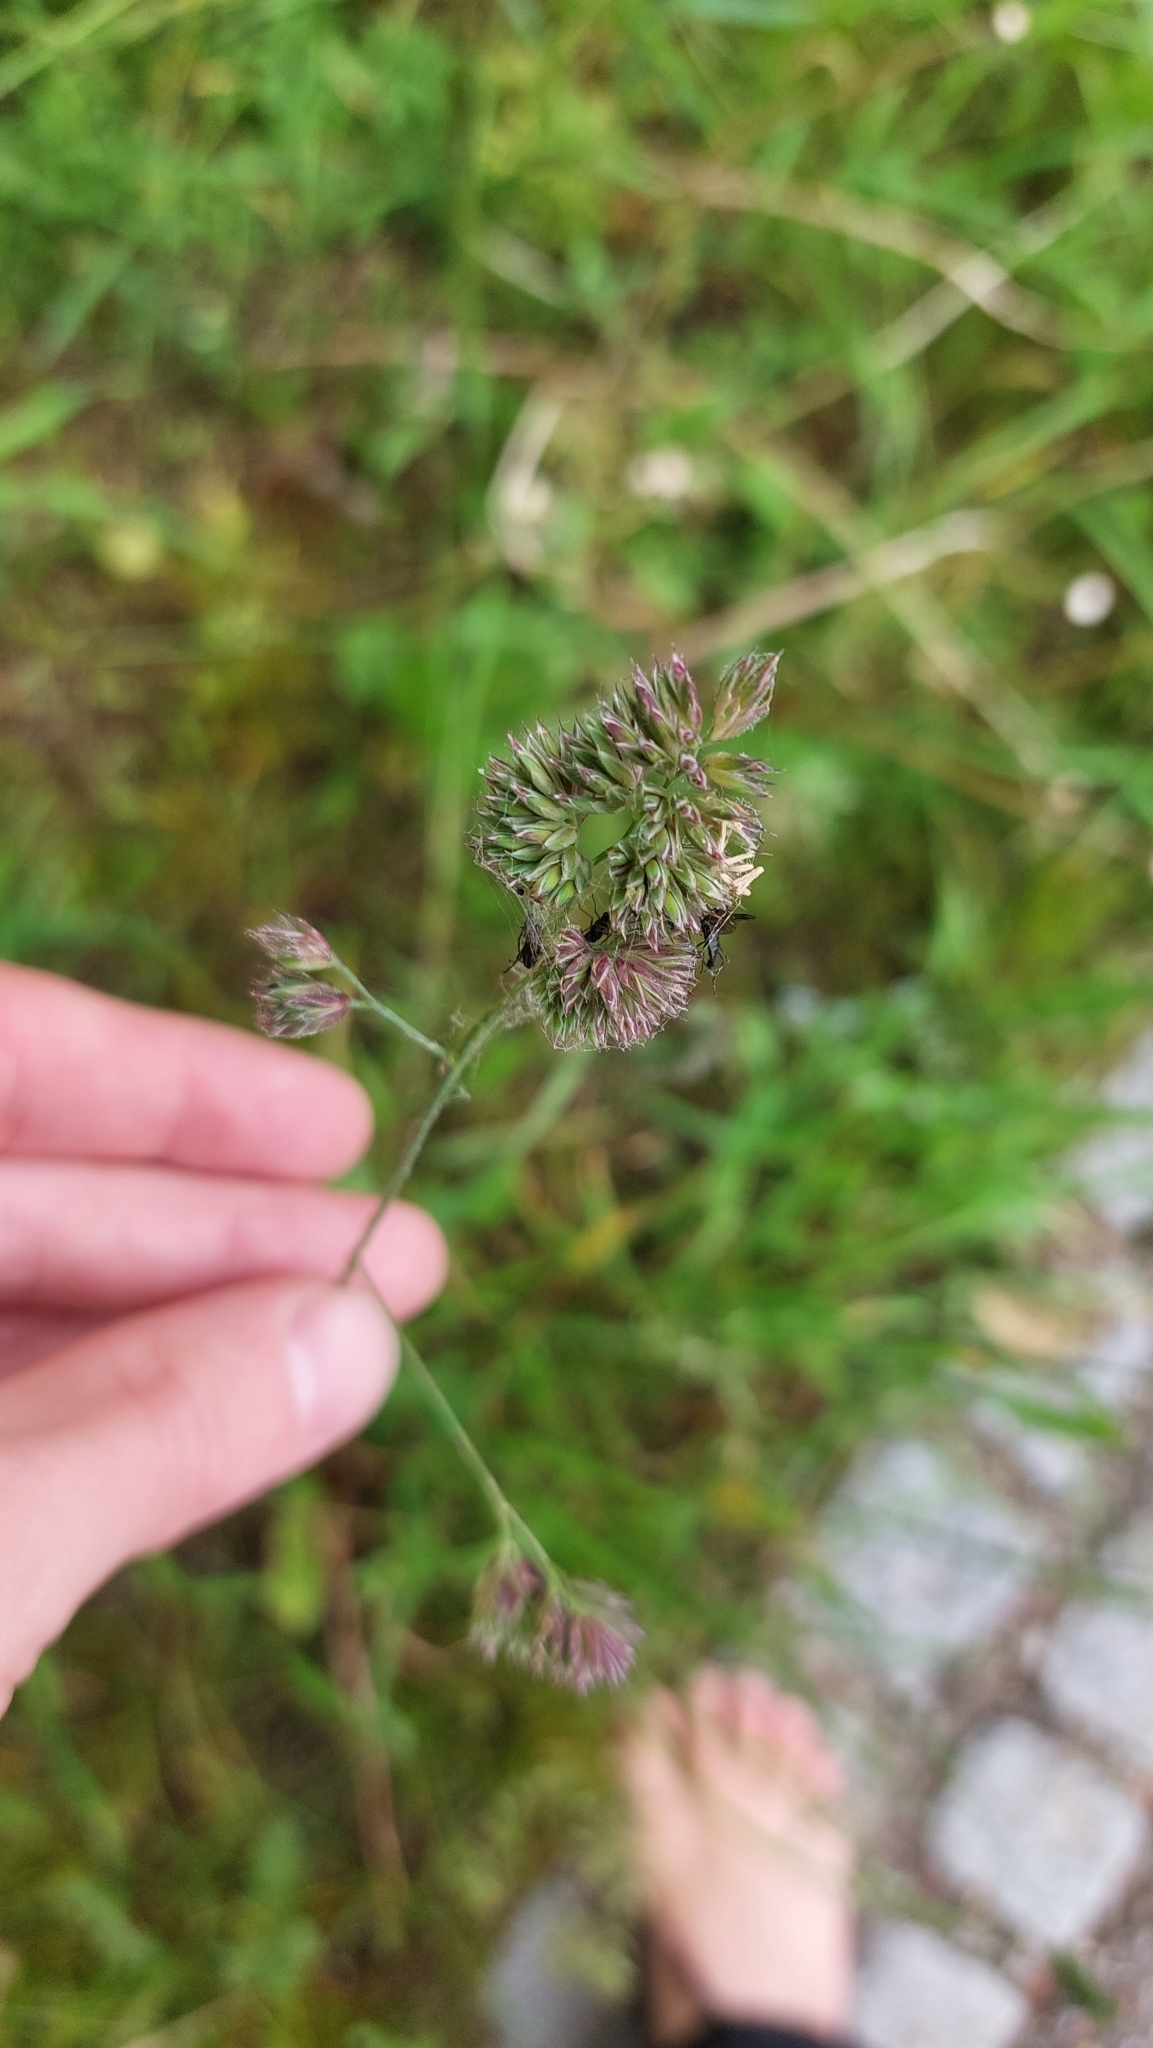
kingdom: Plantae
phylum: Tracheophyta
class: Liliopsida
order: Poales
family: Poaceae
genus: Dactylis
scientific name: Dactylis glomerata
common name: Orchardgrass
